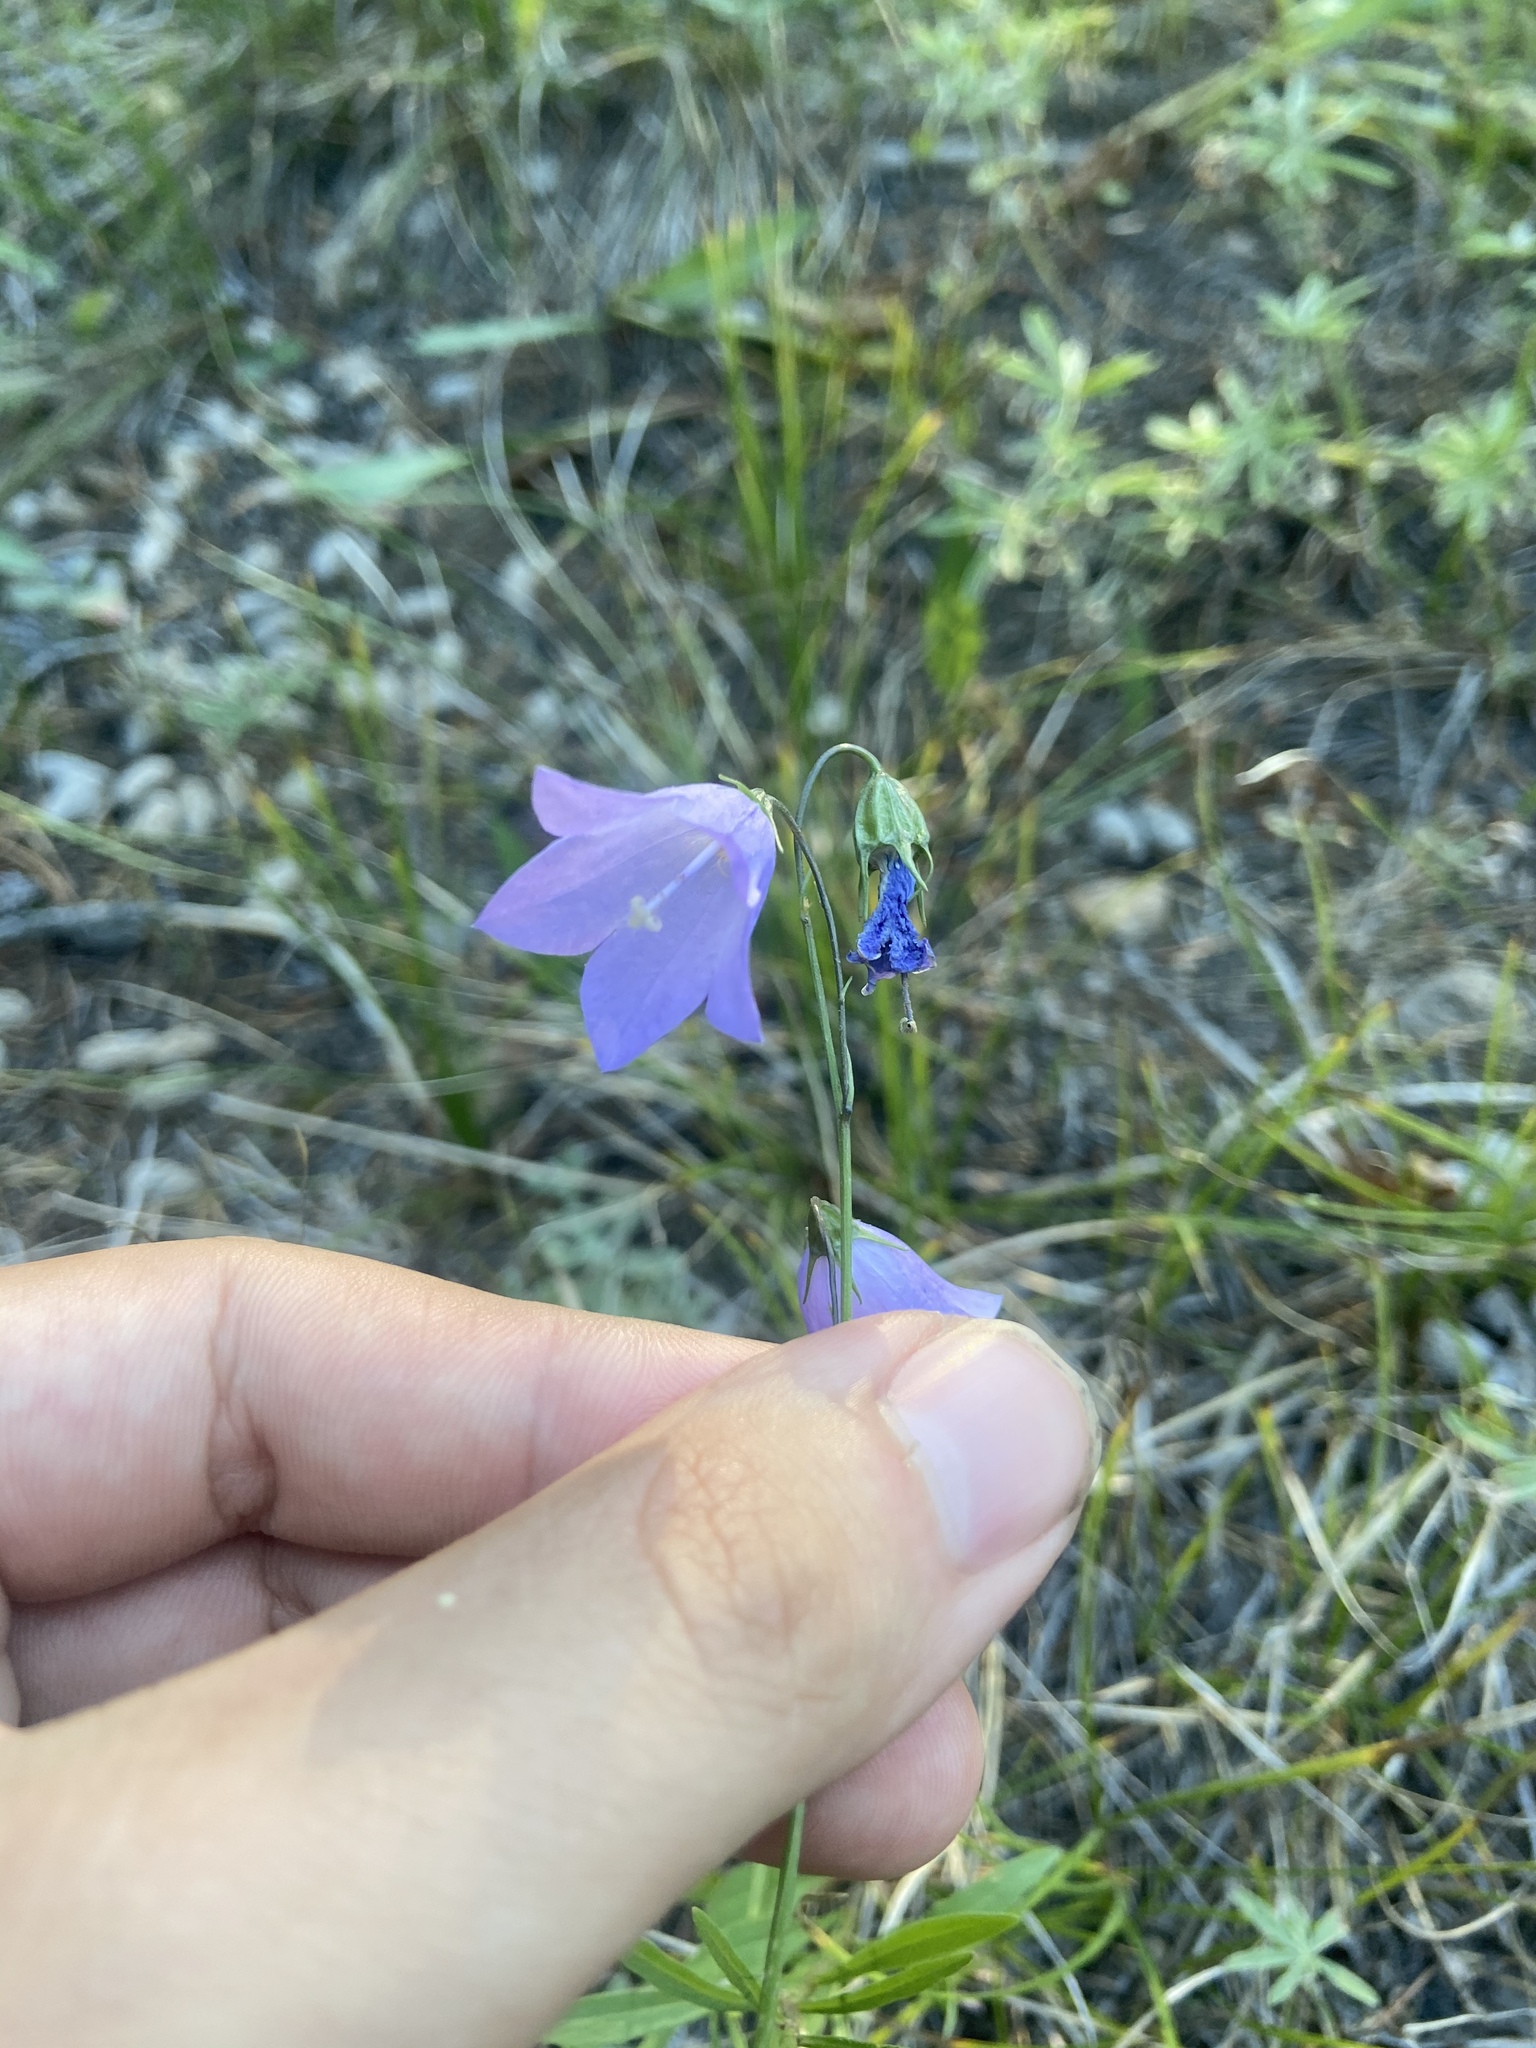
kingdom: Plantae
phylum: Tracheophyta
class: Magnoliopsida
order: Asterales
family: Campanulaceae
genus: Campanula
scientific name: Campanula
